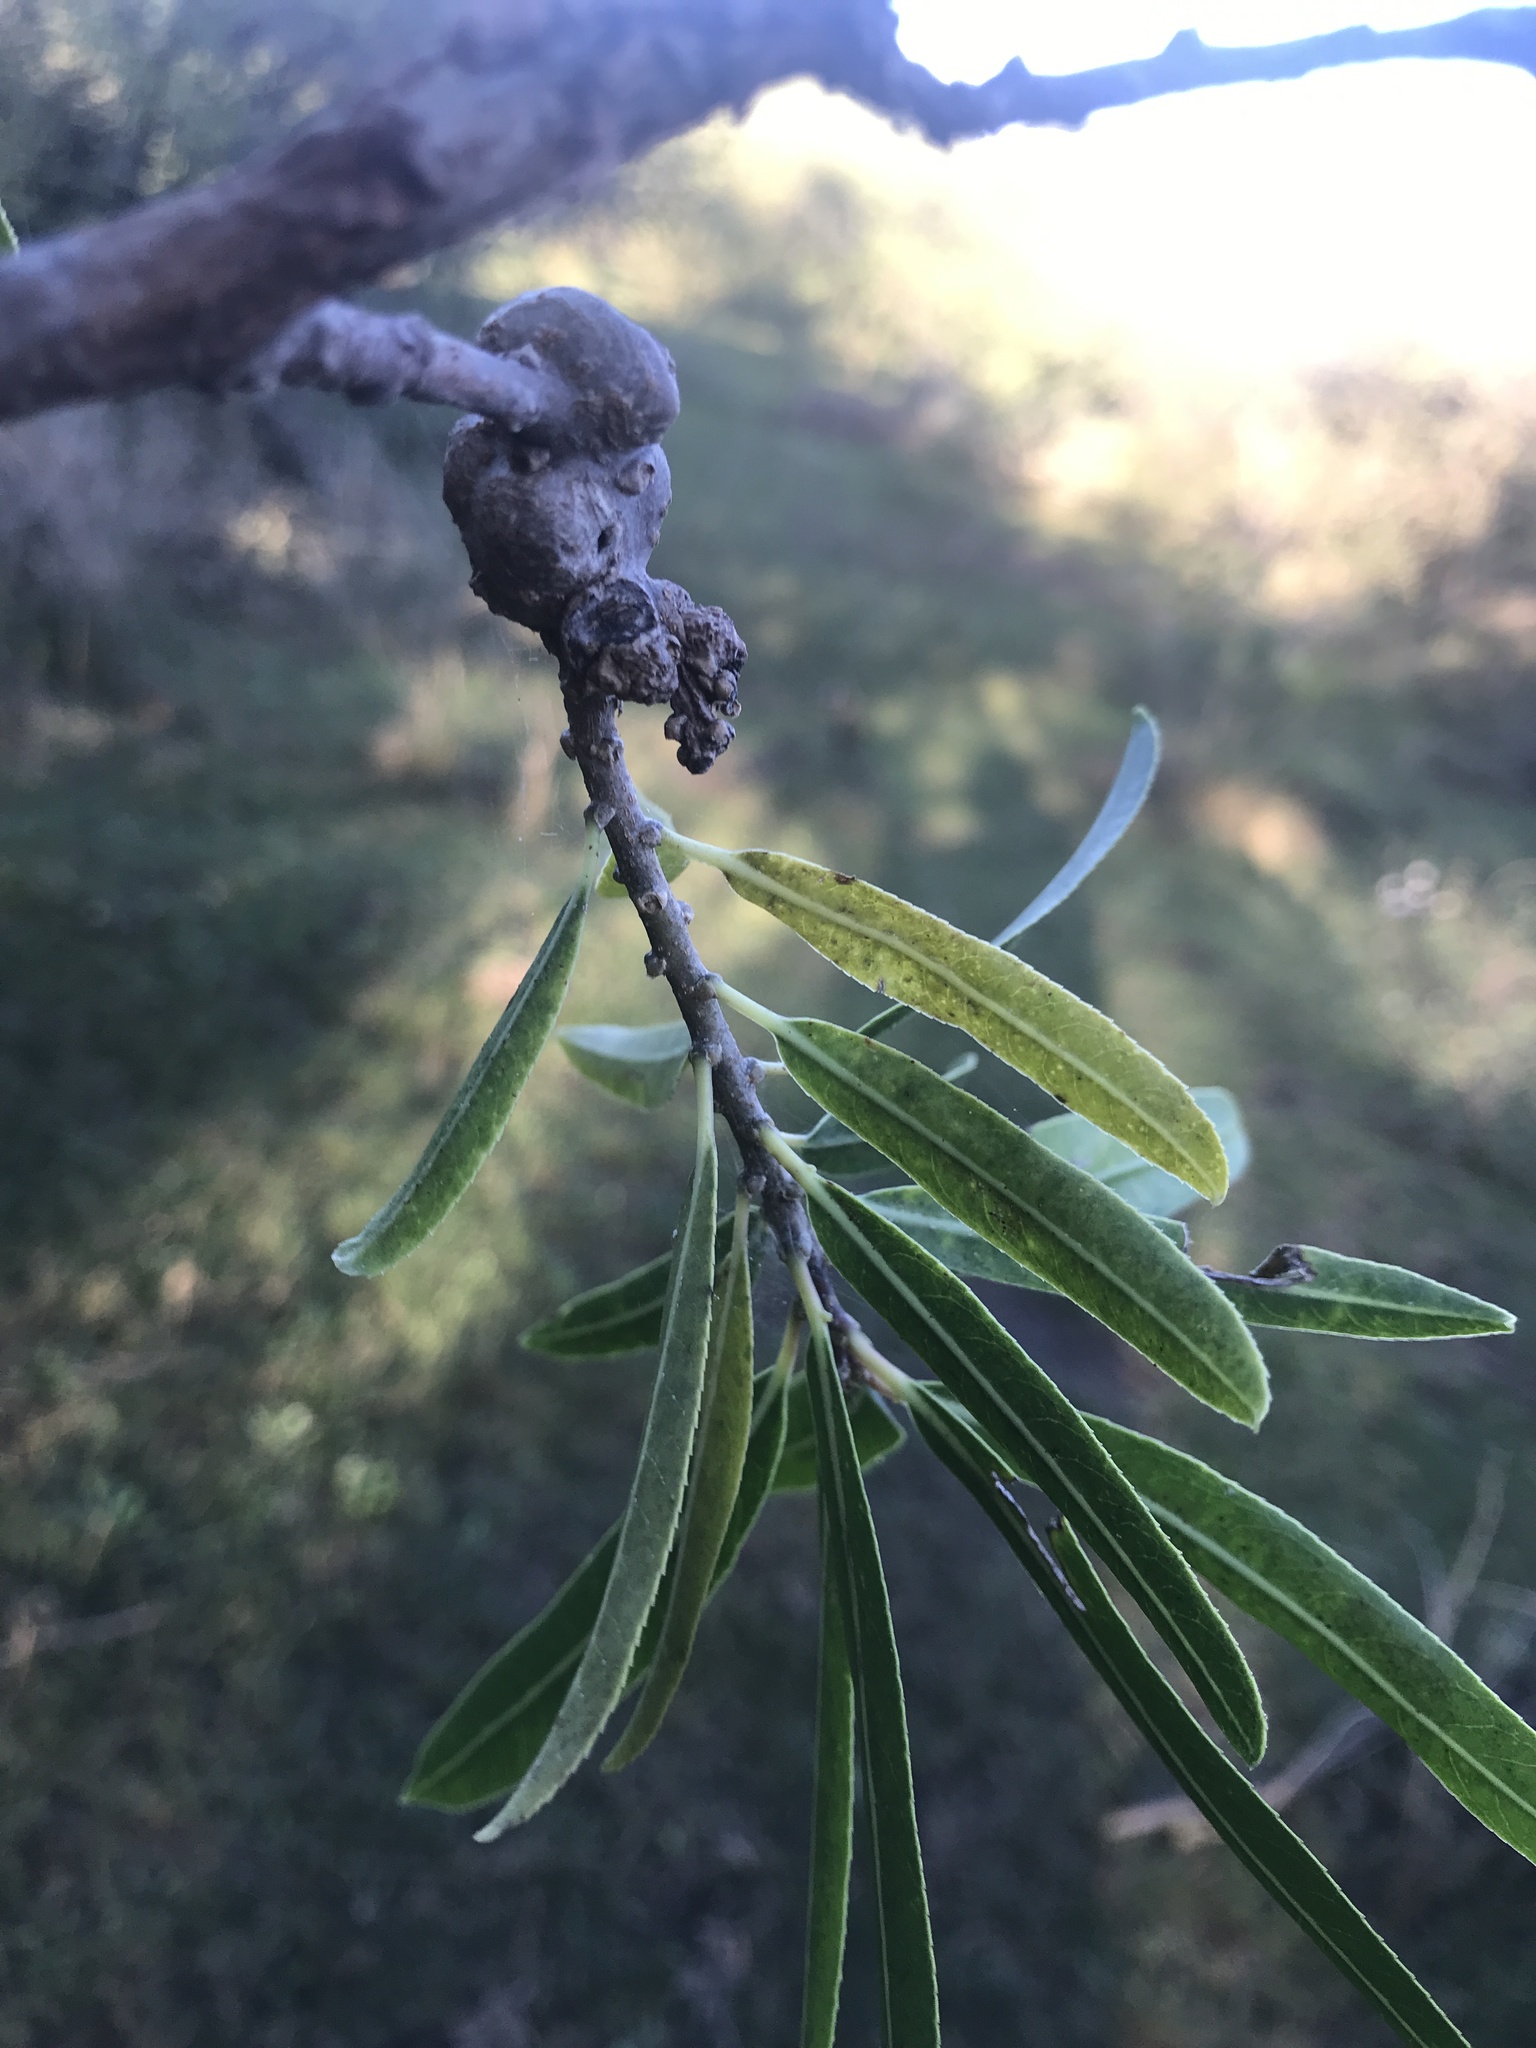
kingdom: Plantae
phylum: Tracheophyta
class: Magnoliopsida
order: Malpighiales
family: Euphorbiaceae
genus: Sapium
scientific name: Sapium haematospermum
